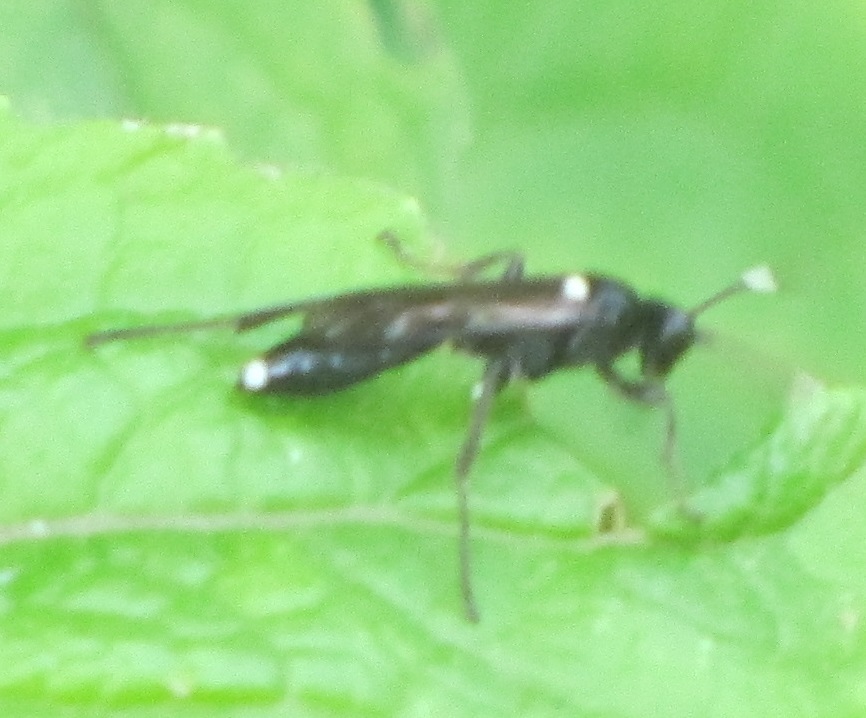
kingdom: Animalia
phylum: Arthropoda
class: Insecta
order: Hymenoptera
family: Ichneumonidae
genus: Vulgichneumon
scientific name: Vulgichneumon brevicinctor
